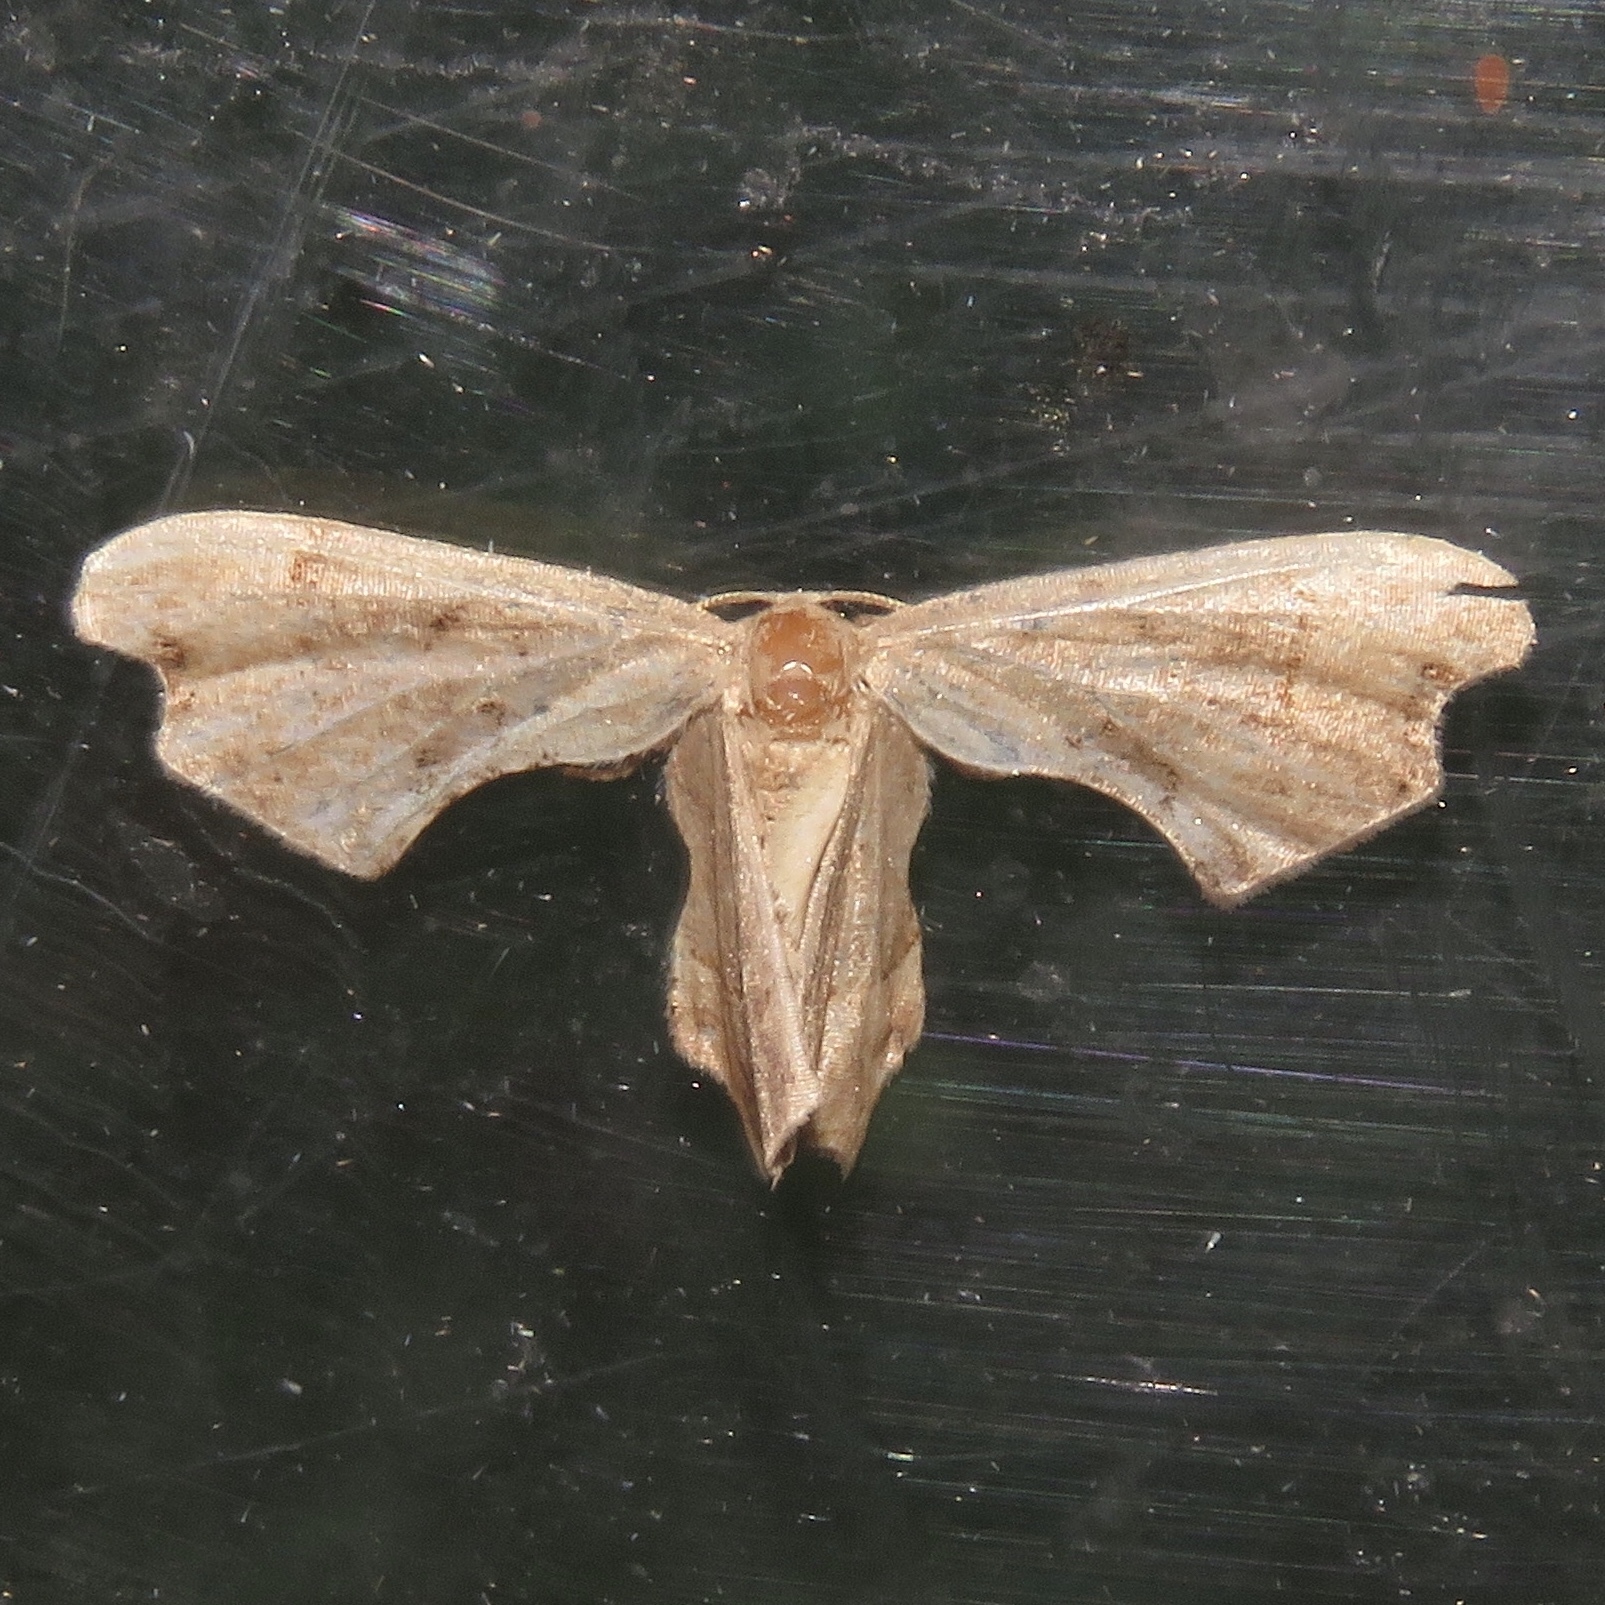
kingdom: Animalia
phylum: Arthropoda
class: Insecta
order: Lepidoptera
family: Uraniidae
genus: Epiplema
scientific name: Epiplema Calledapteryx dryopterata
